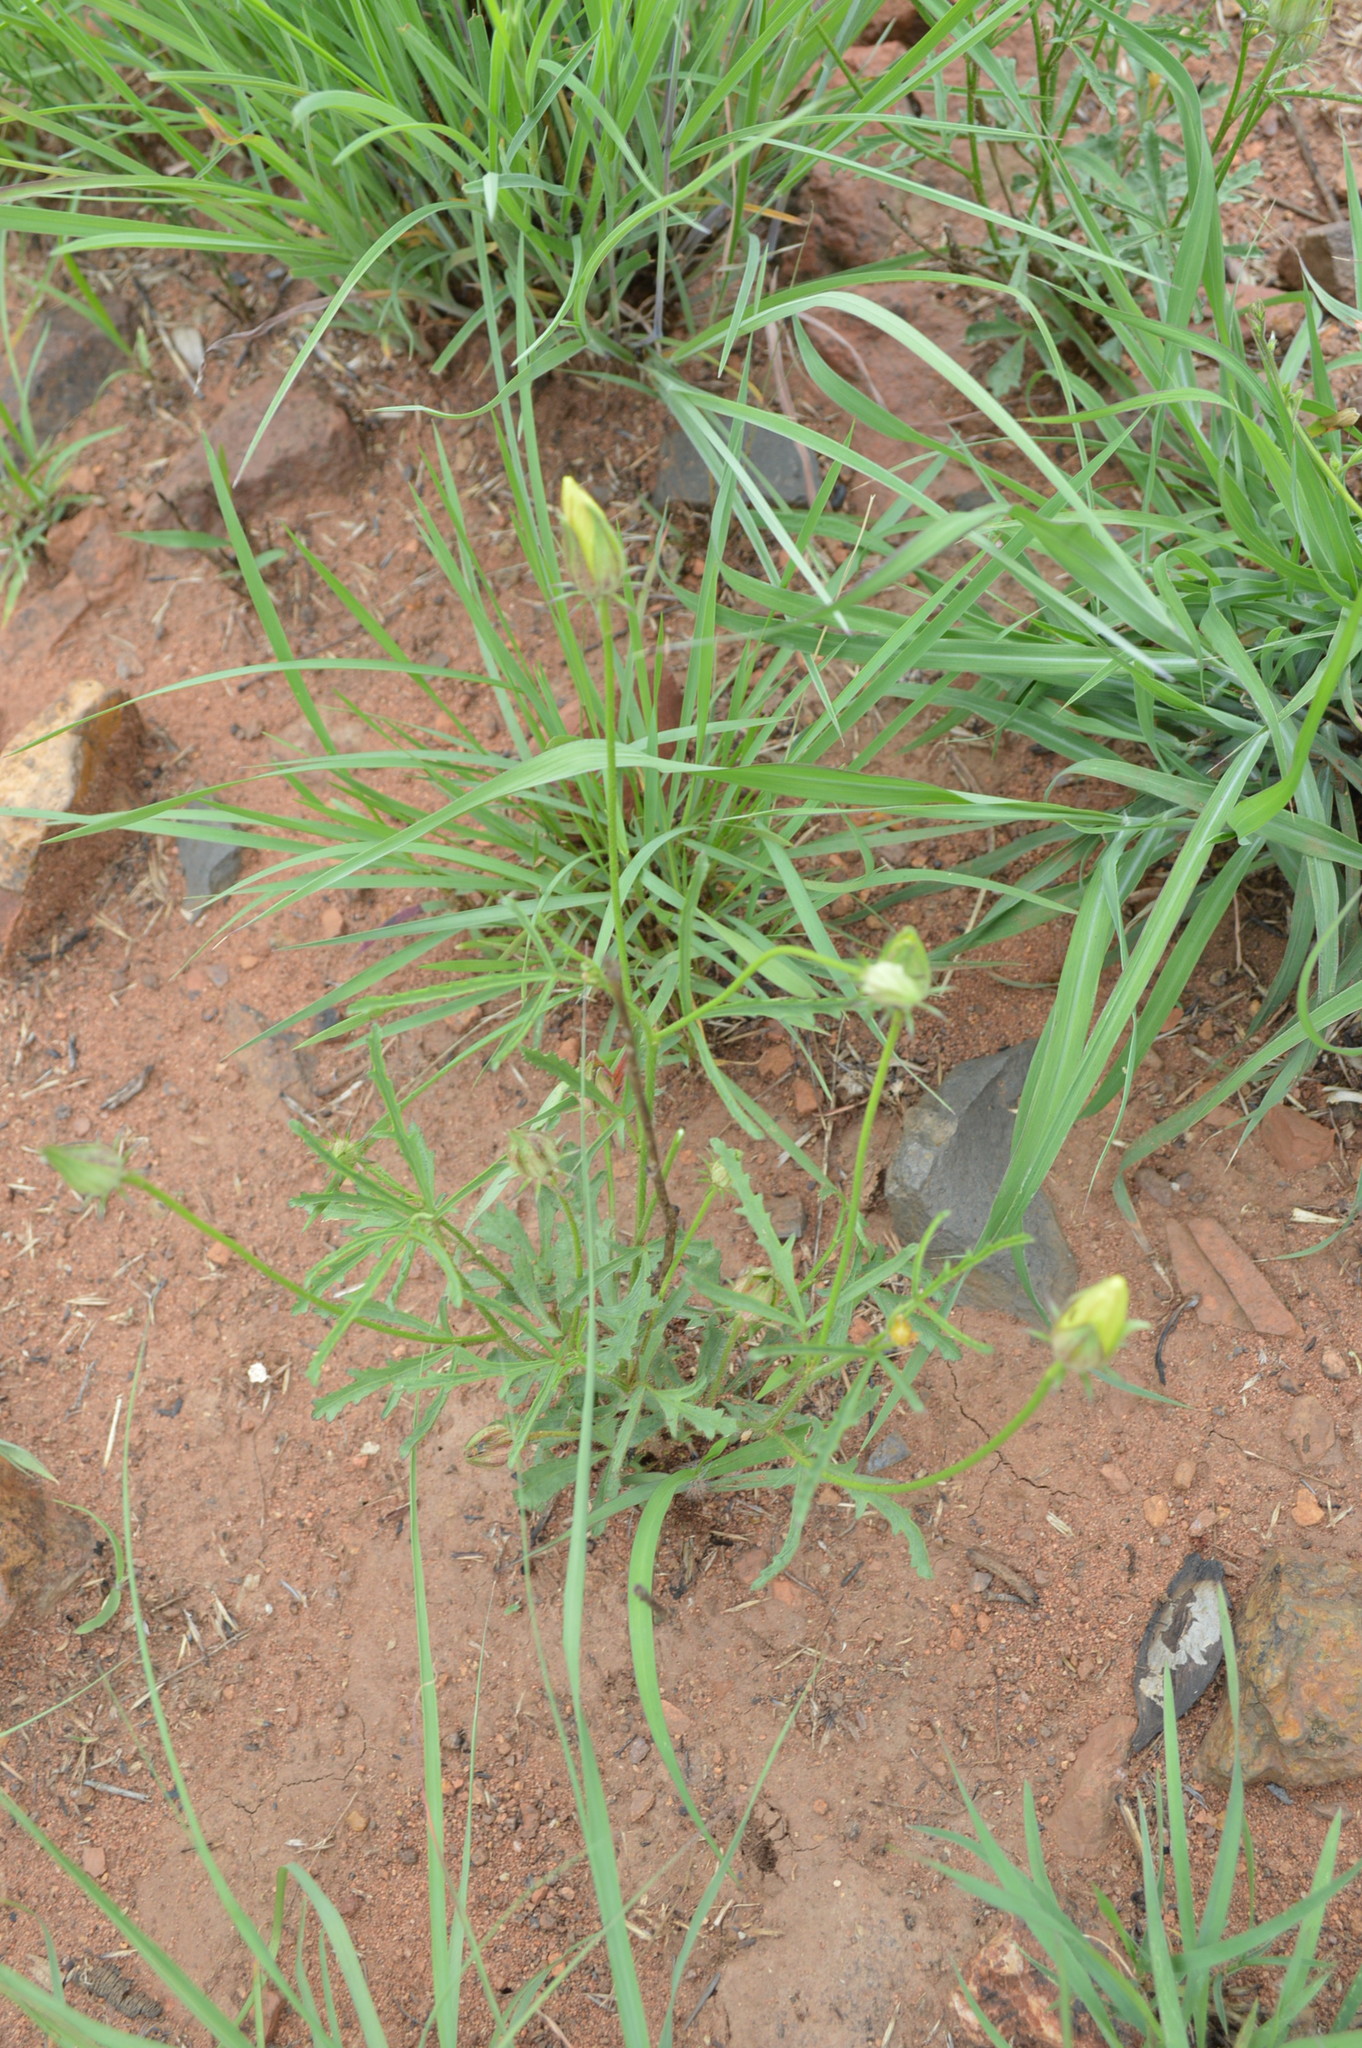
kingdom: Plantae
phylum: Tracheophyta
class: Magnoliopsida
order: Malvales
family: Malvaceae
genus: Hibiscus
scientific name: Hibiscus trionum
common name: Bladder ketmia
